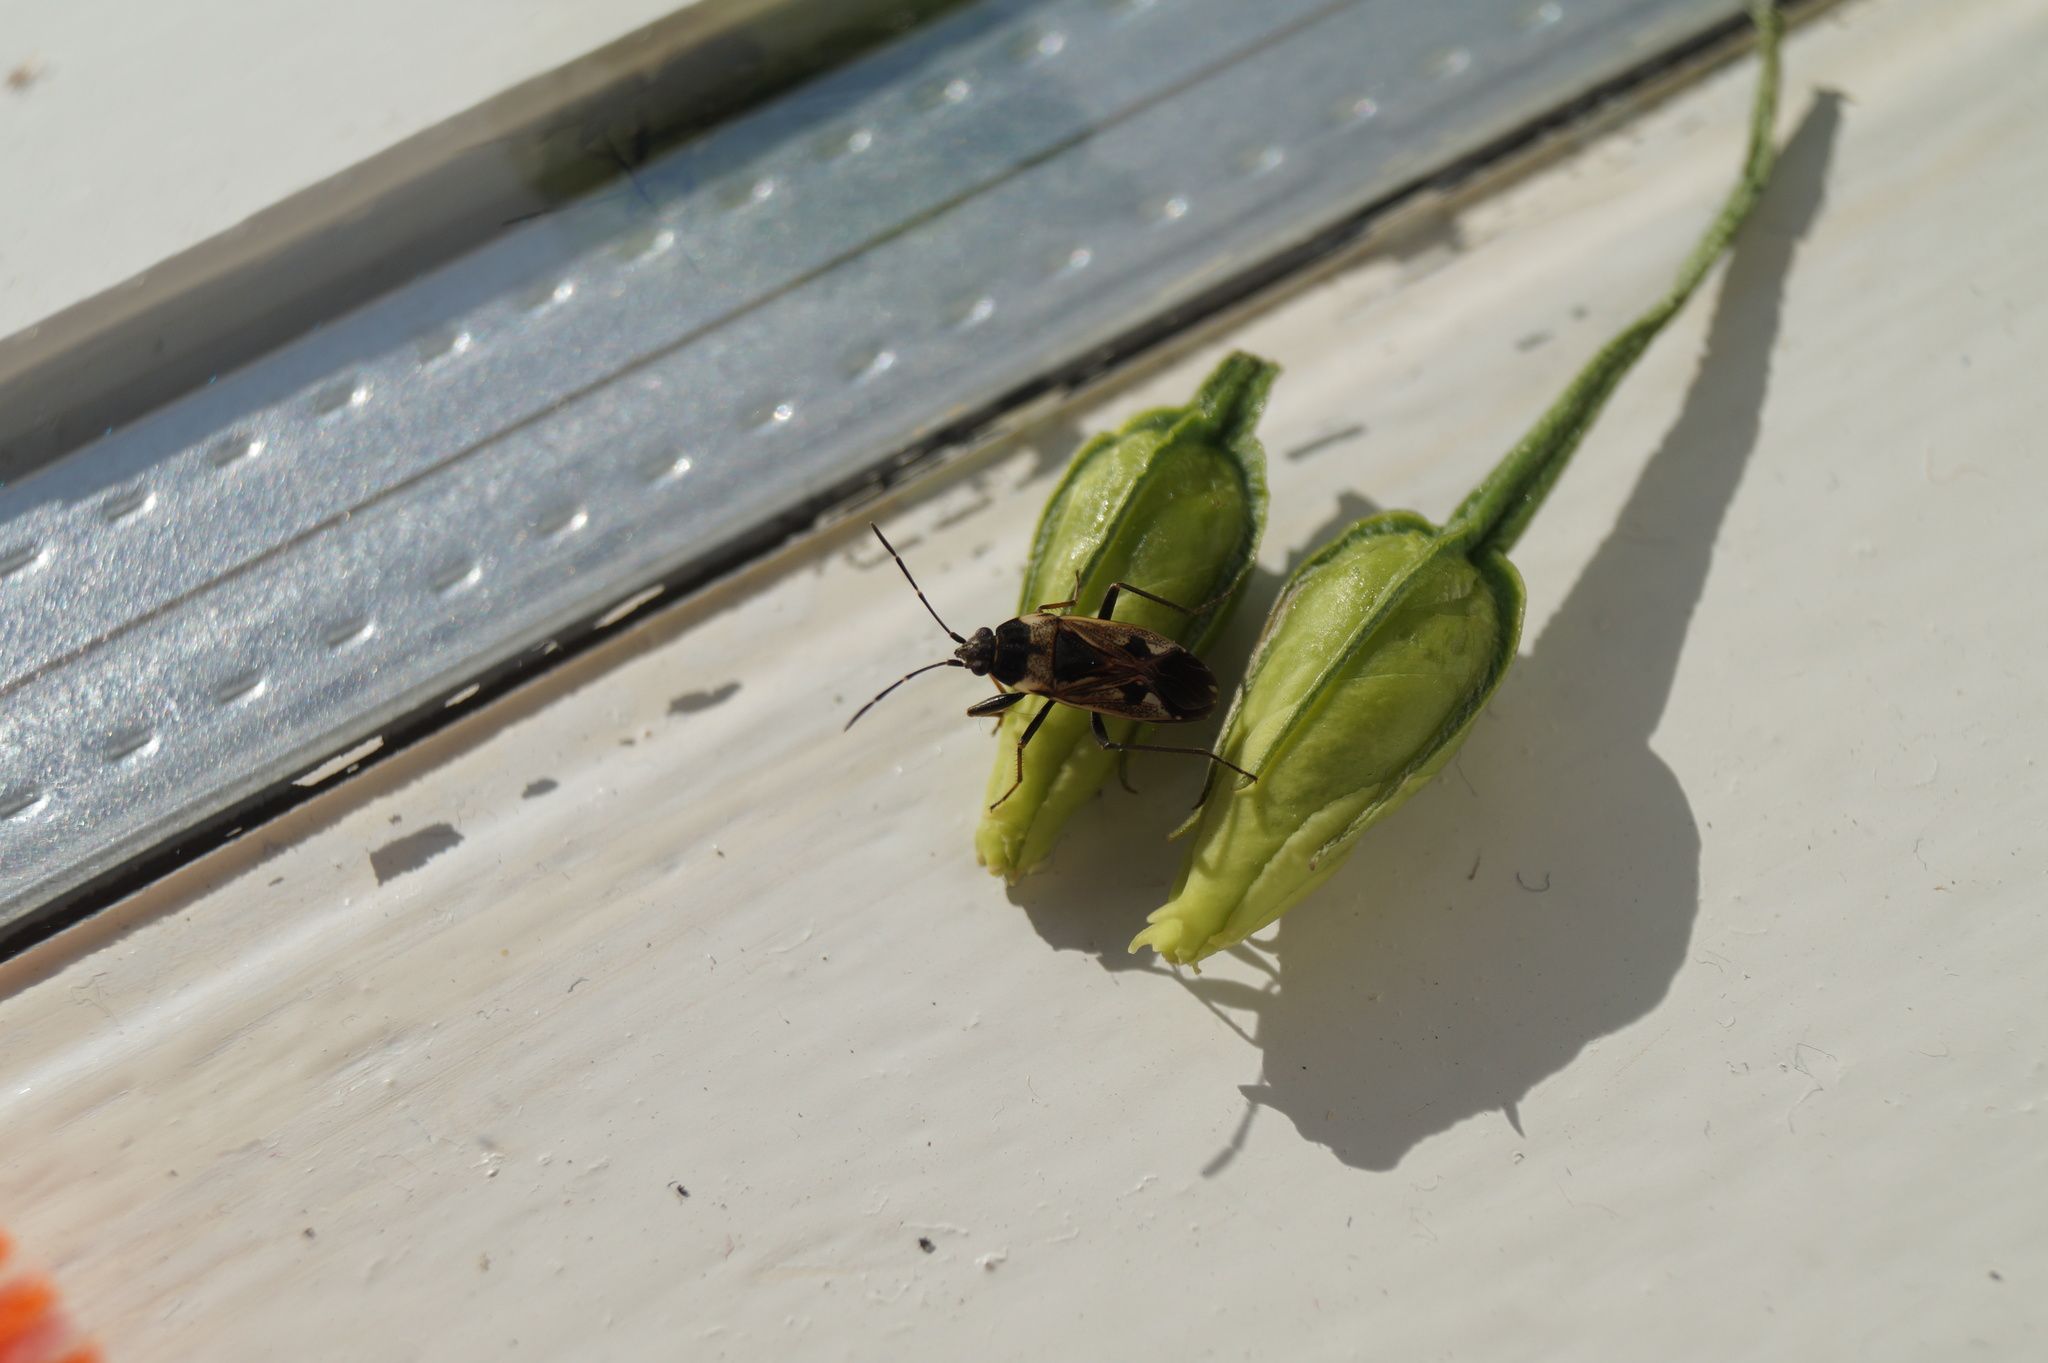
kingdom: Animalia
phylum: Arthropoda
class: Insecta
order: Hemiptera
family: Rhyparochromidae
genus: Rhyparochromus
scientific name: Rhyparochromus vulgaris
